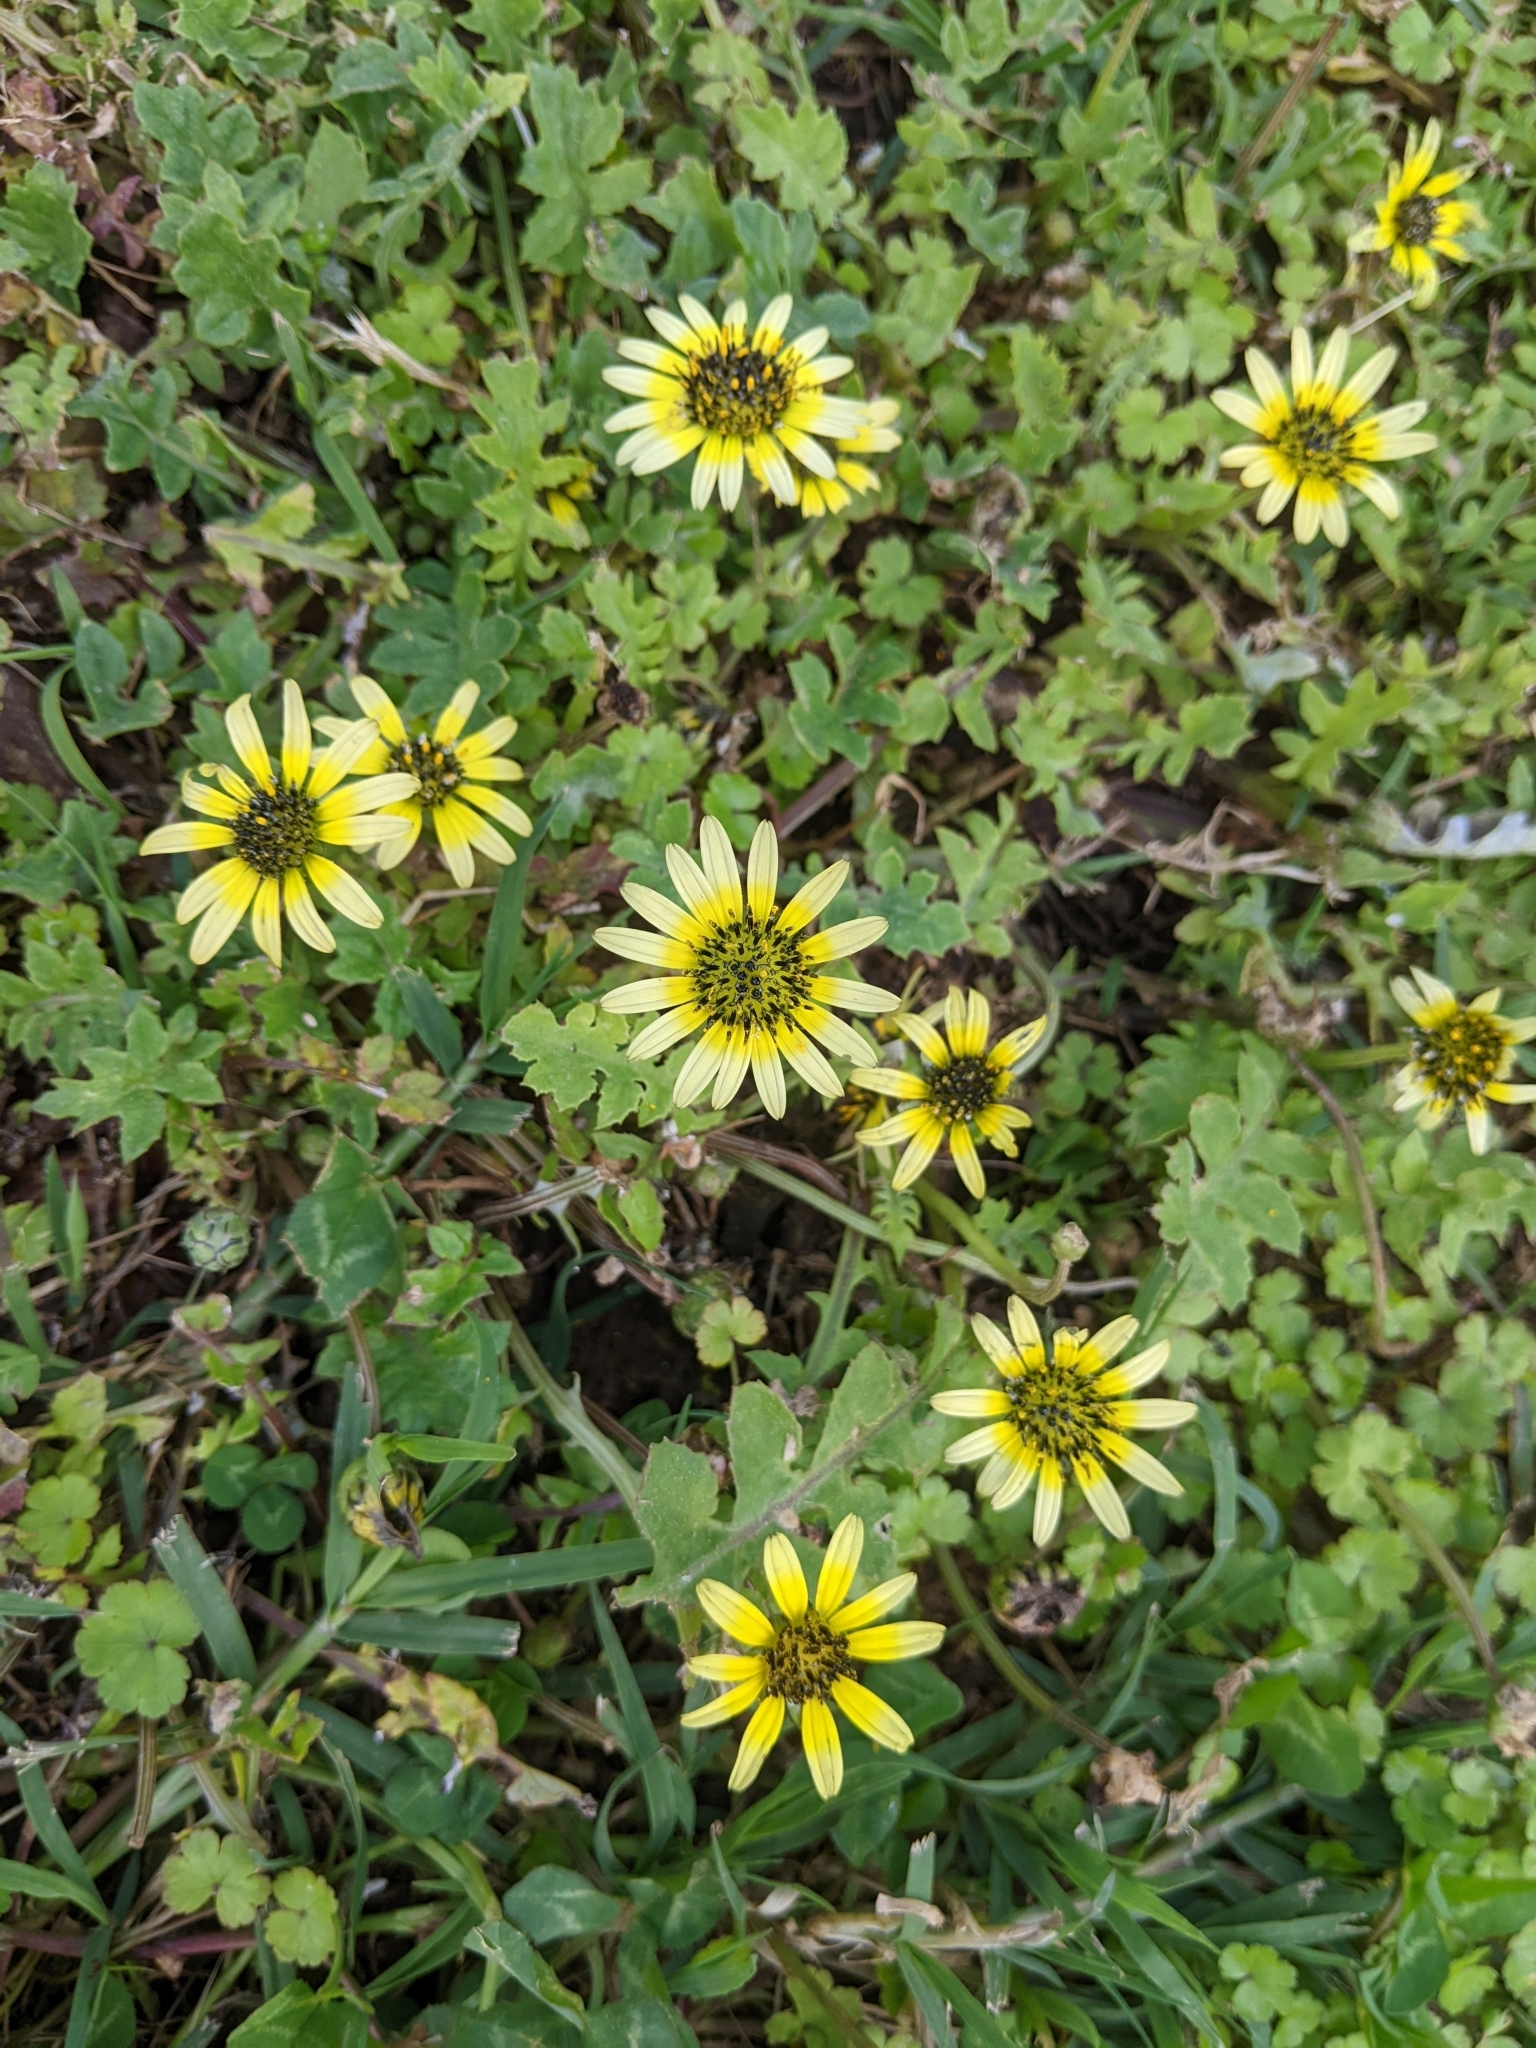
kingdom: Plantae
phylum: Tracheophyta
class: Magnoliopsida
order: Asterales
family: Asteraceae
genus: Arctotheca
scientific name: Arctotheca calendula
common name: Capeweed
